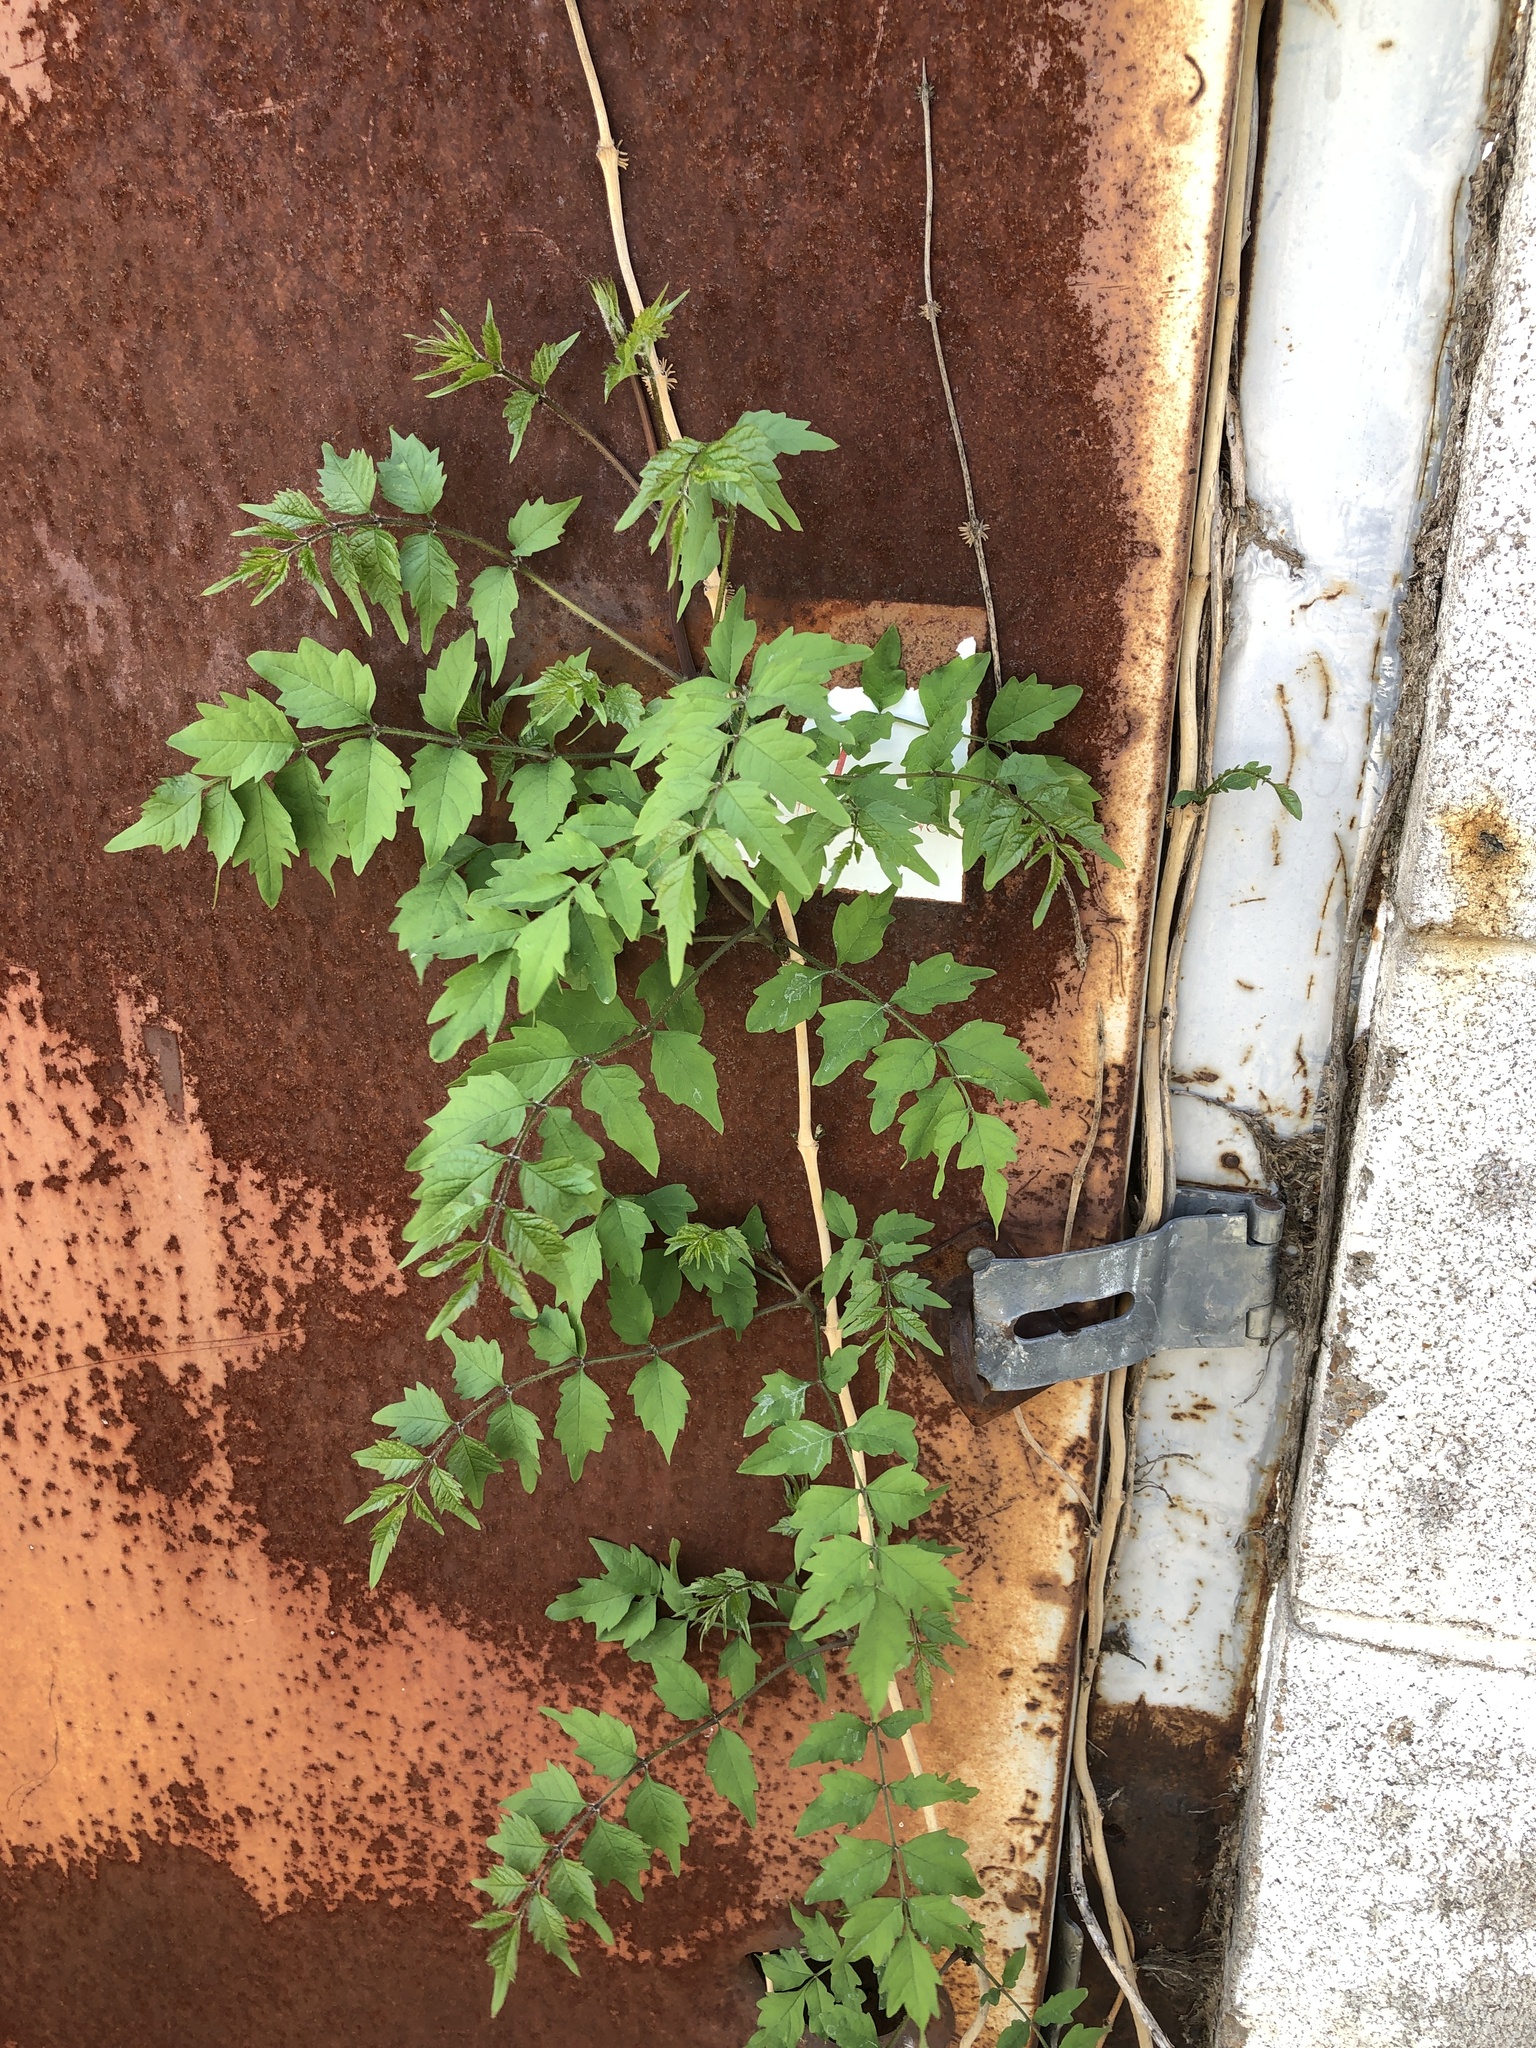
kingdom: Plantae
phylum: Tracheophyta
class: Magnoliopsida
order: Lamiales
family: Bignoniaceae
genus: Campsis
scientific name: Campsis radicans
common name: Trumpet-creeper
